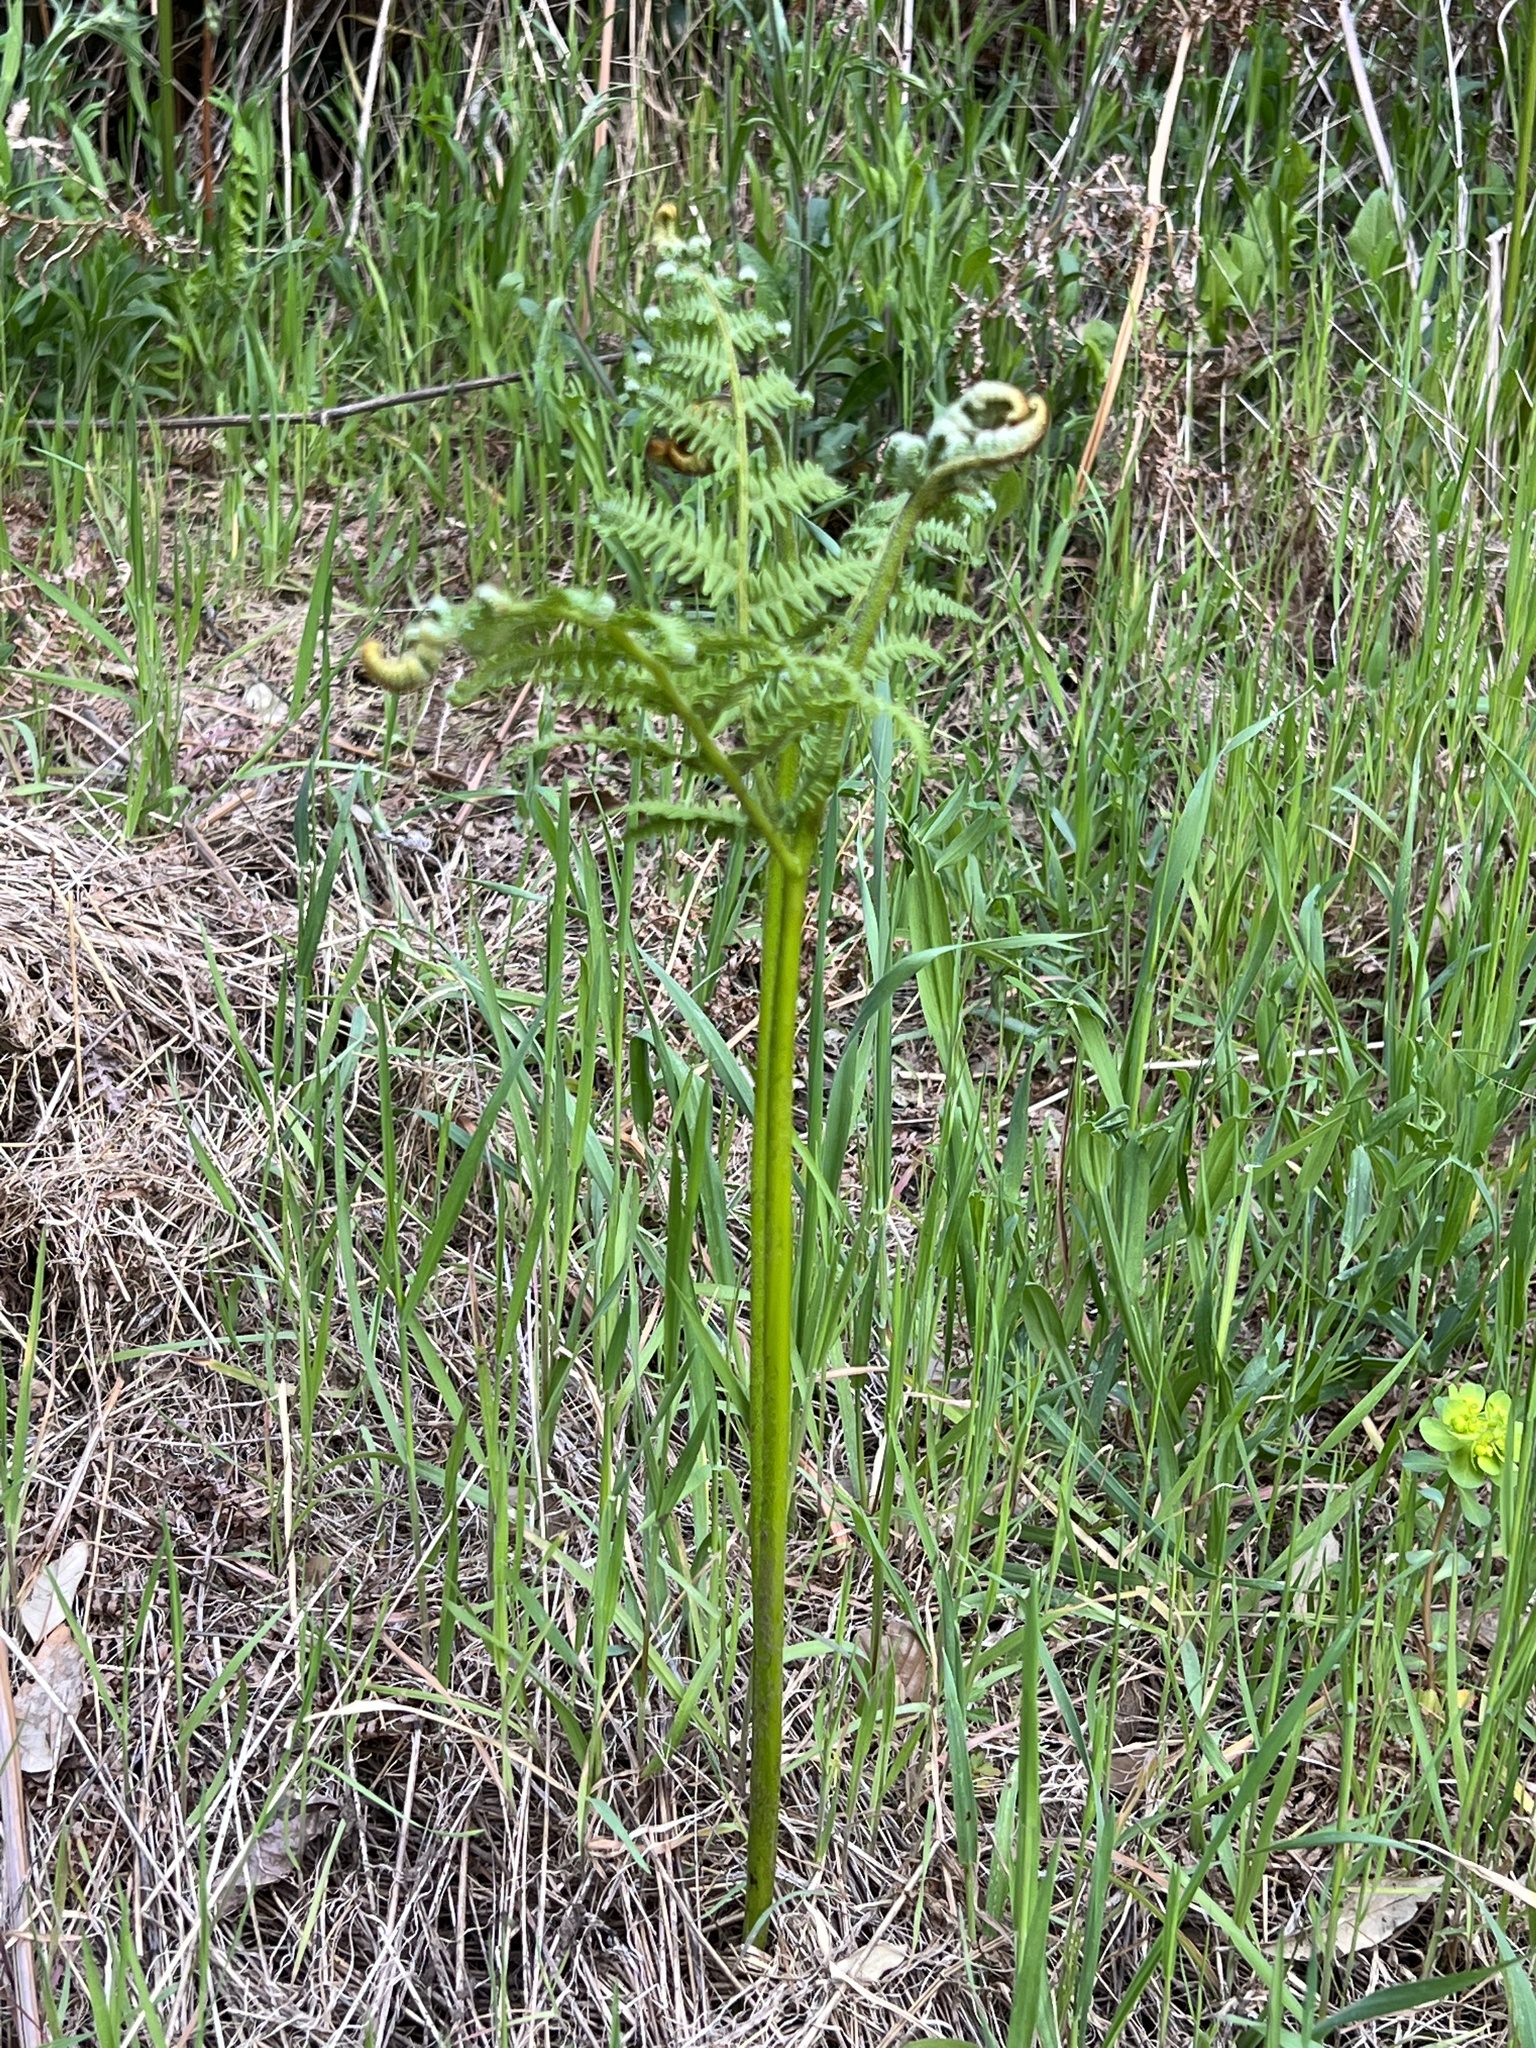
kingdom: Plantae
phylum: Tracheophyta
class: Polypodiopsida
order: Polypodiales
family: Dennstaedtiaceae
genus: Pteridium
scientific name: Pteridium aquilinum
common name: Bracken
